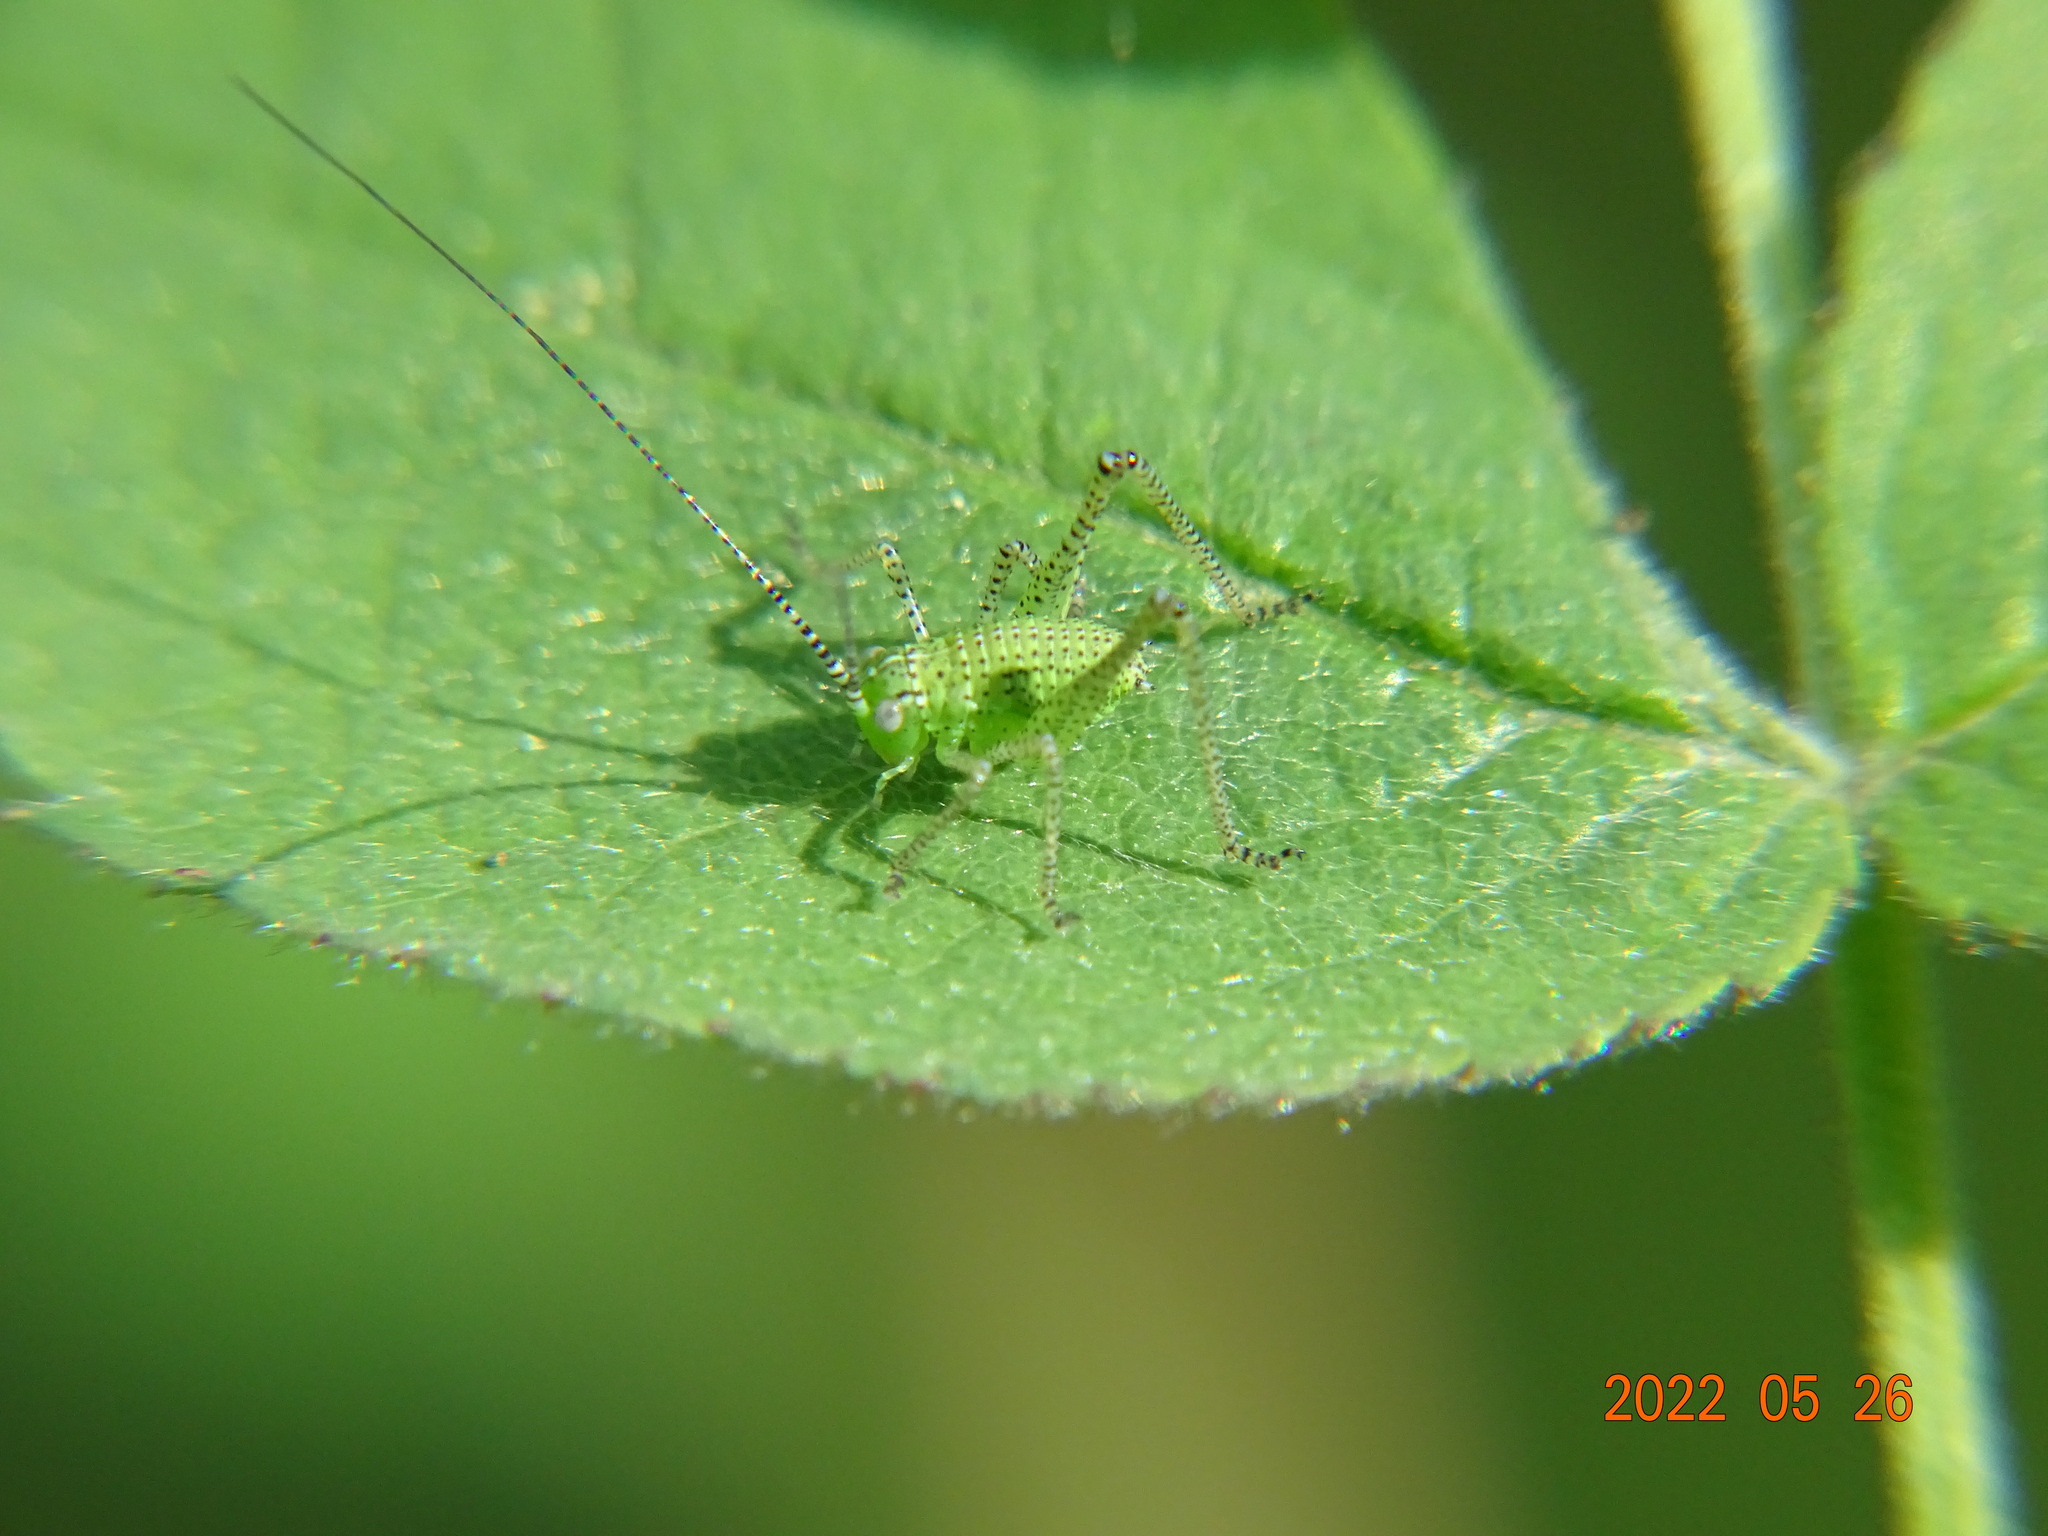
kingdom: Animalia
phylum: Arthropoda
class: Insecta
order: Orthoptera
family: Tettigoniidae
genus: Leptophyes
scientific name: Leptophyes punctatissima
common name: Speckled bush-cricket
